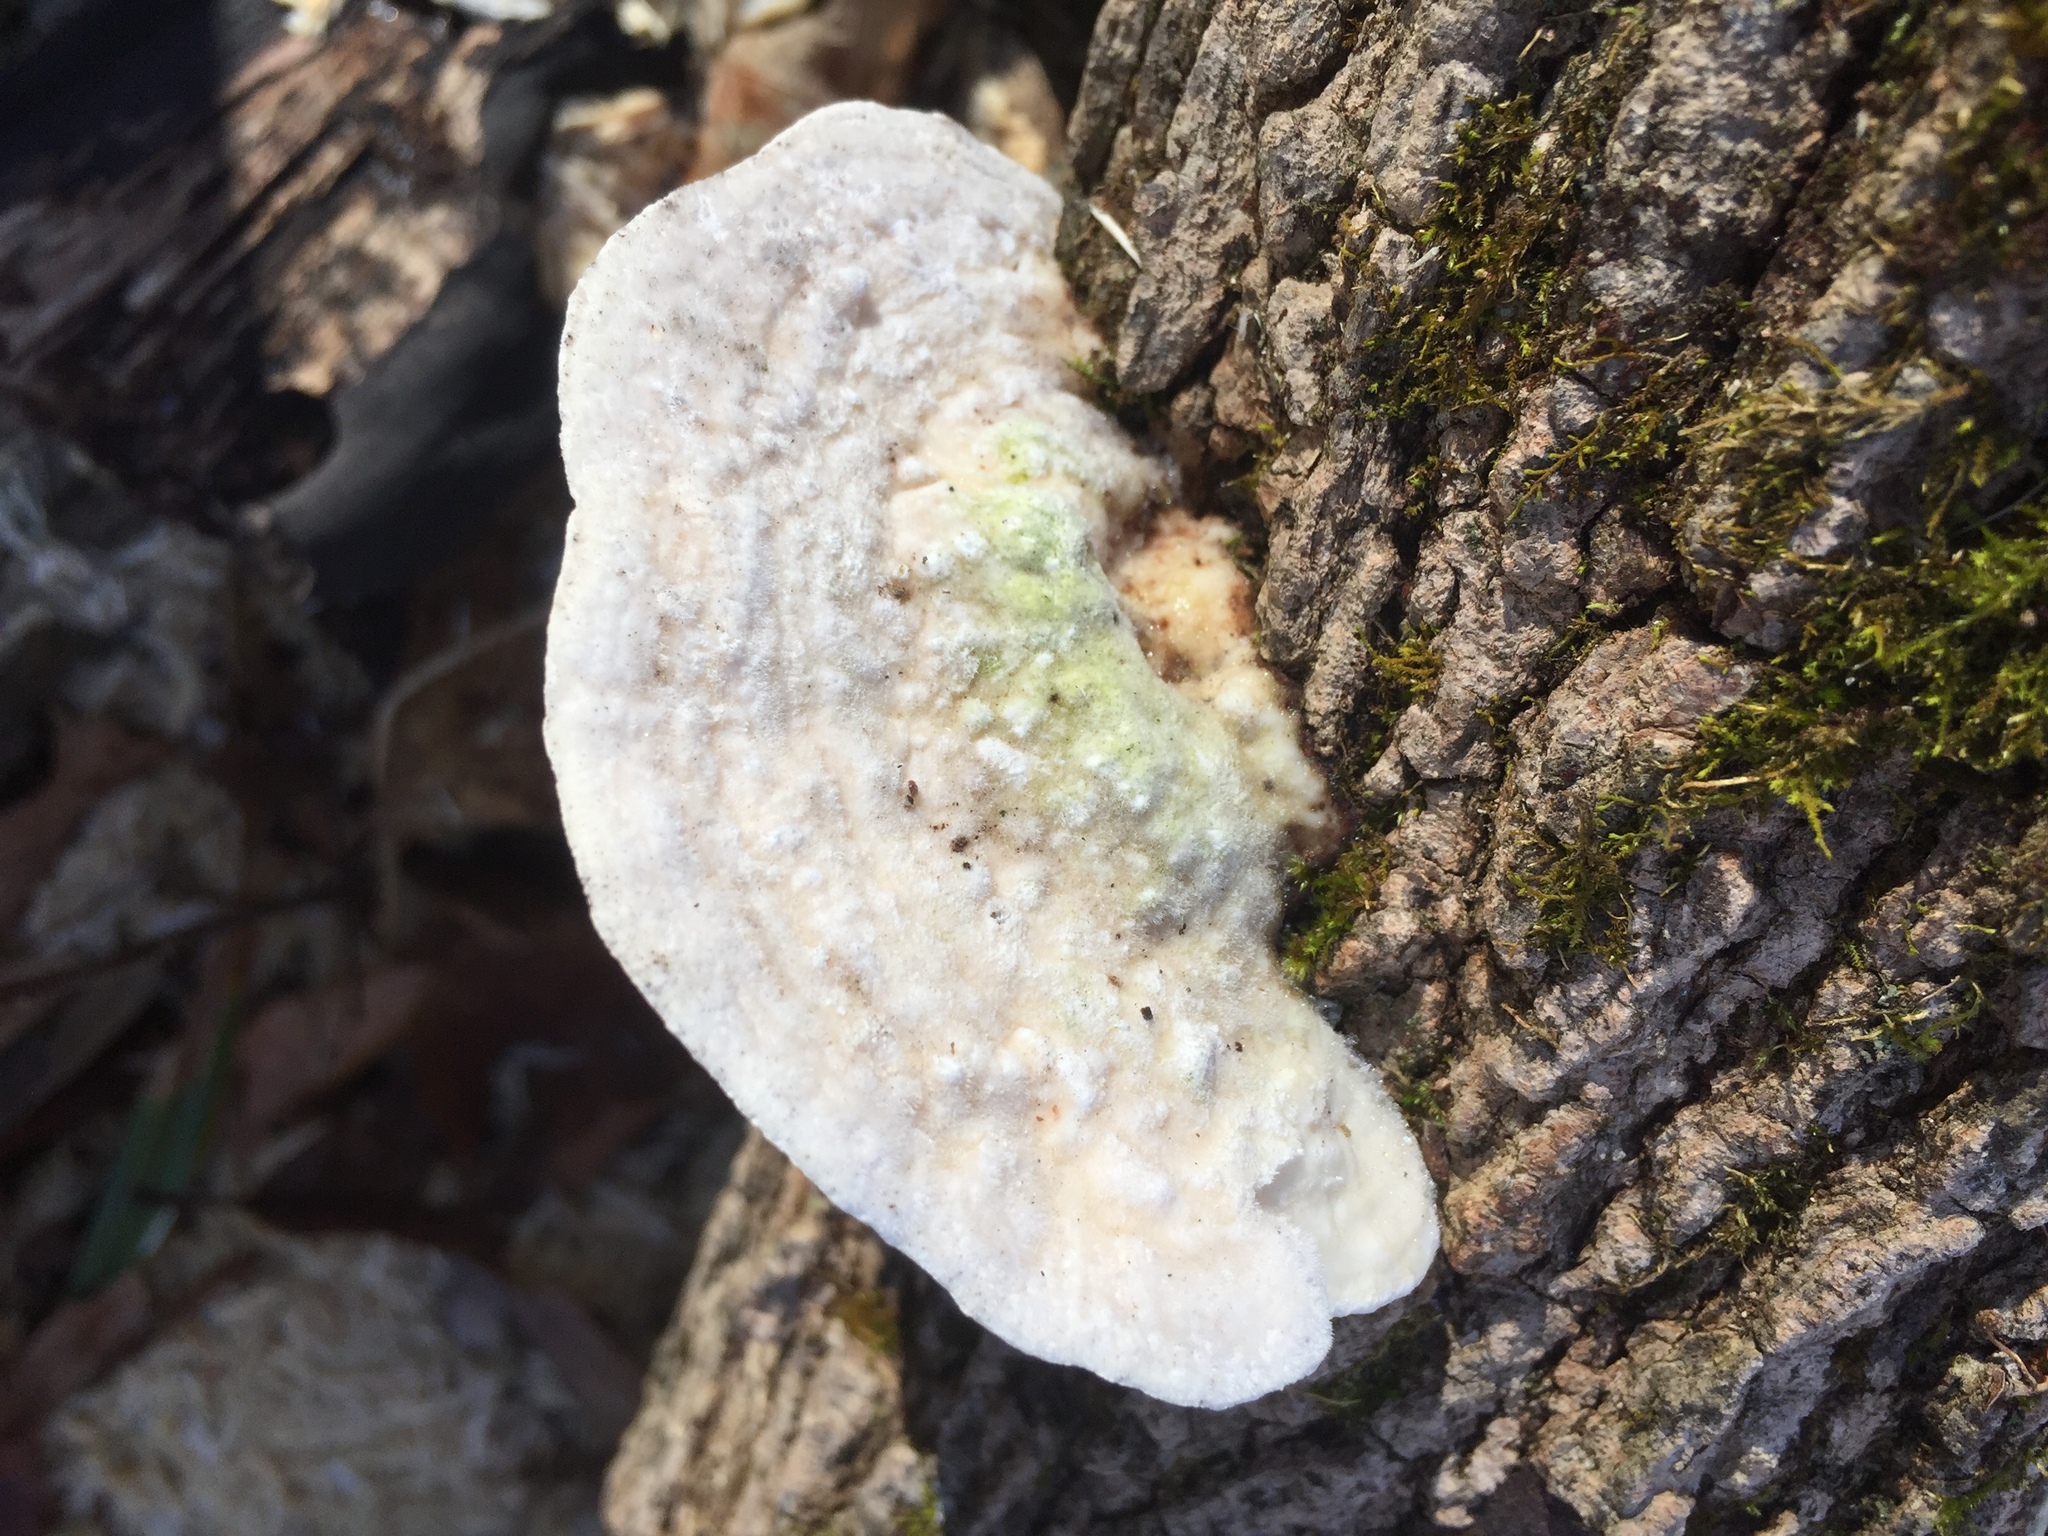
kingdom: Fungi
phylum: Basidiomycota
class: Agaricomycetes
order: Polyporales
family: Polyporaceae
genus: Trametes
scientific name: Trametes gibbosa
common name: Lumpy bracket
